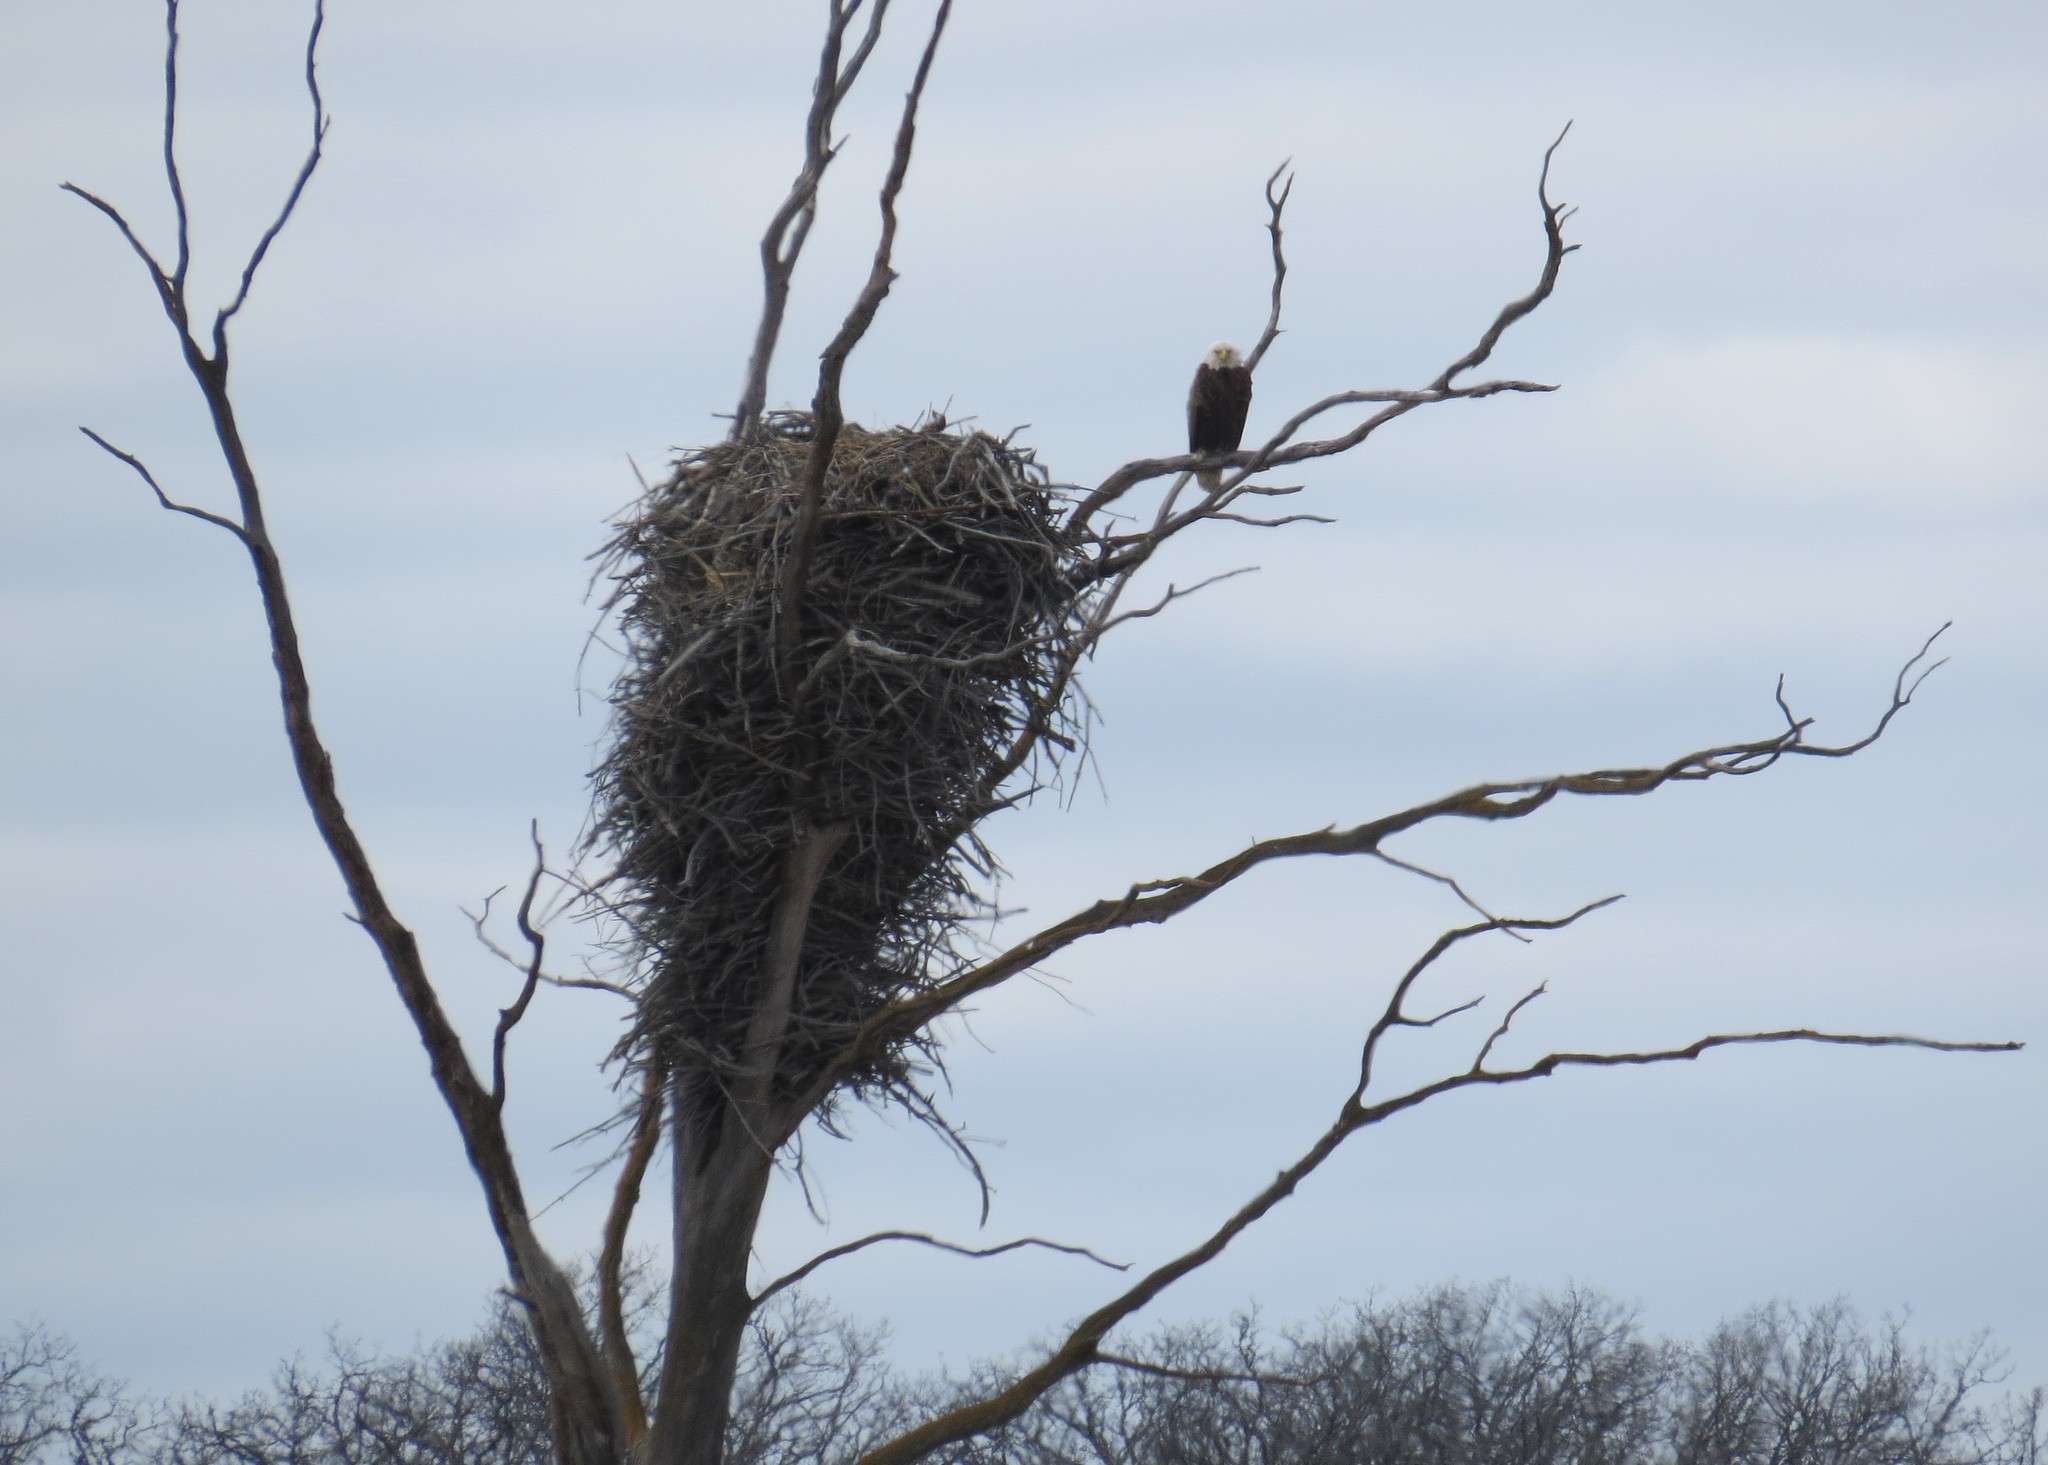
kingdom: Animalia
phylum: Chordata
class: Aves
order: Accipitriformes
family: Accipitridae
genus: Haliaeetus
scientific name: Haliaeetus leucocephalus
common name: Bald eagle
